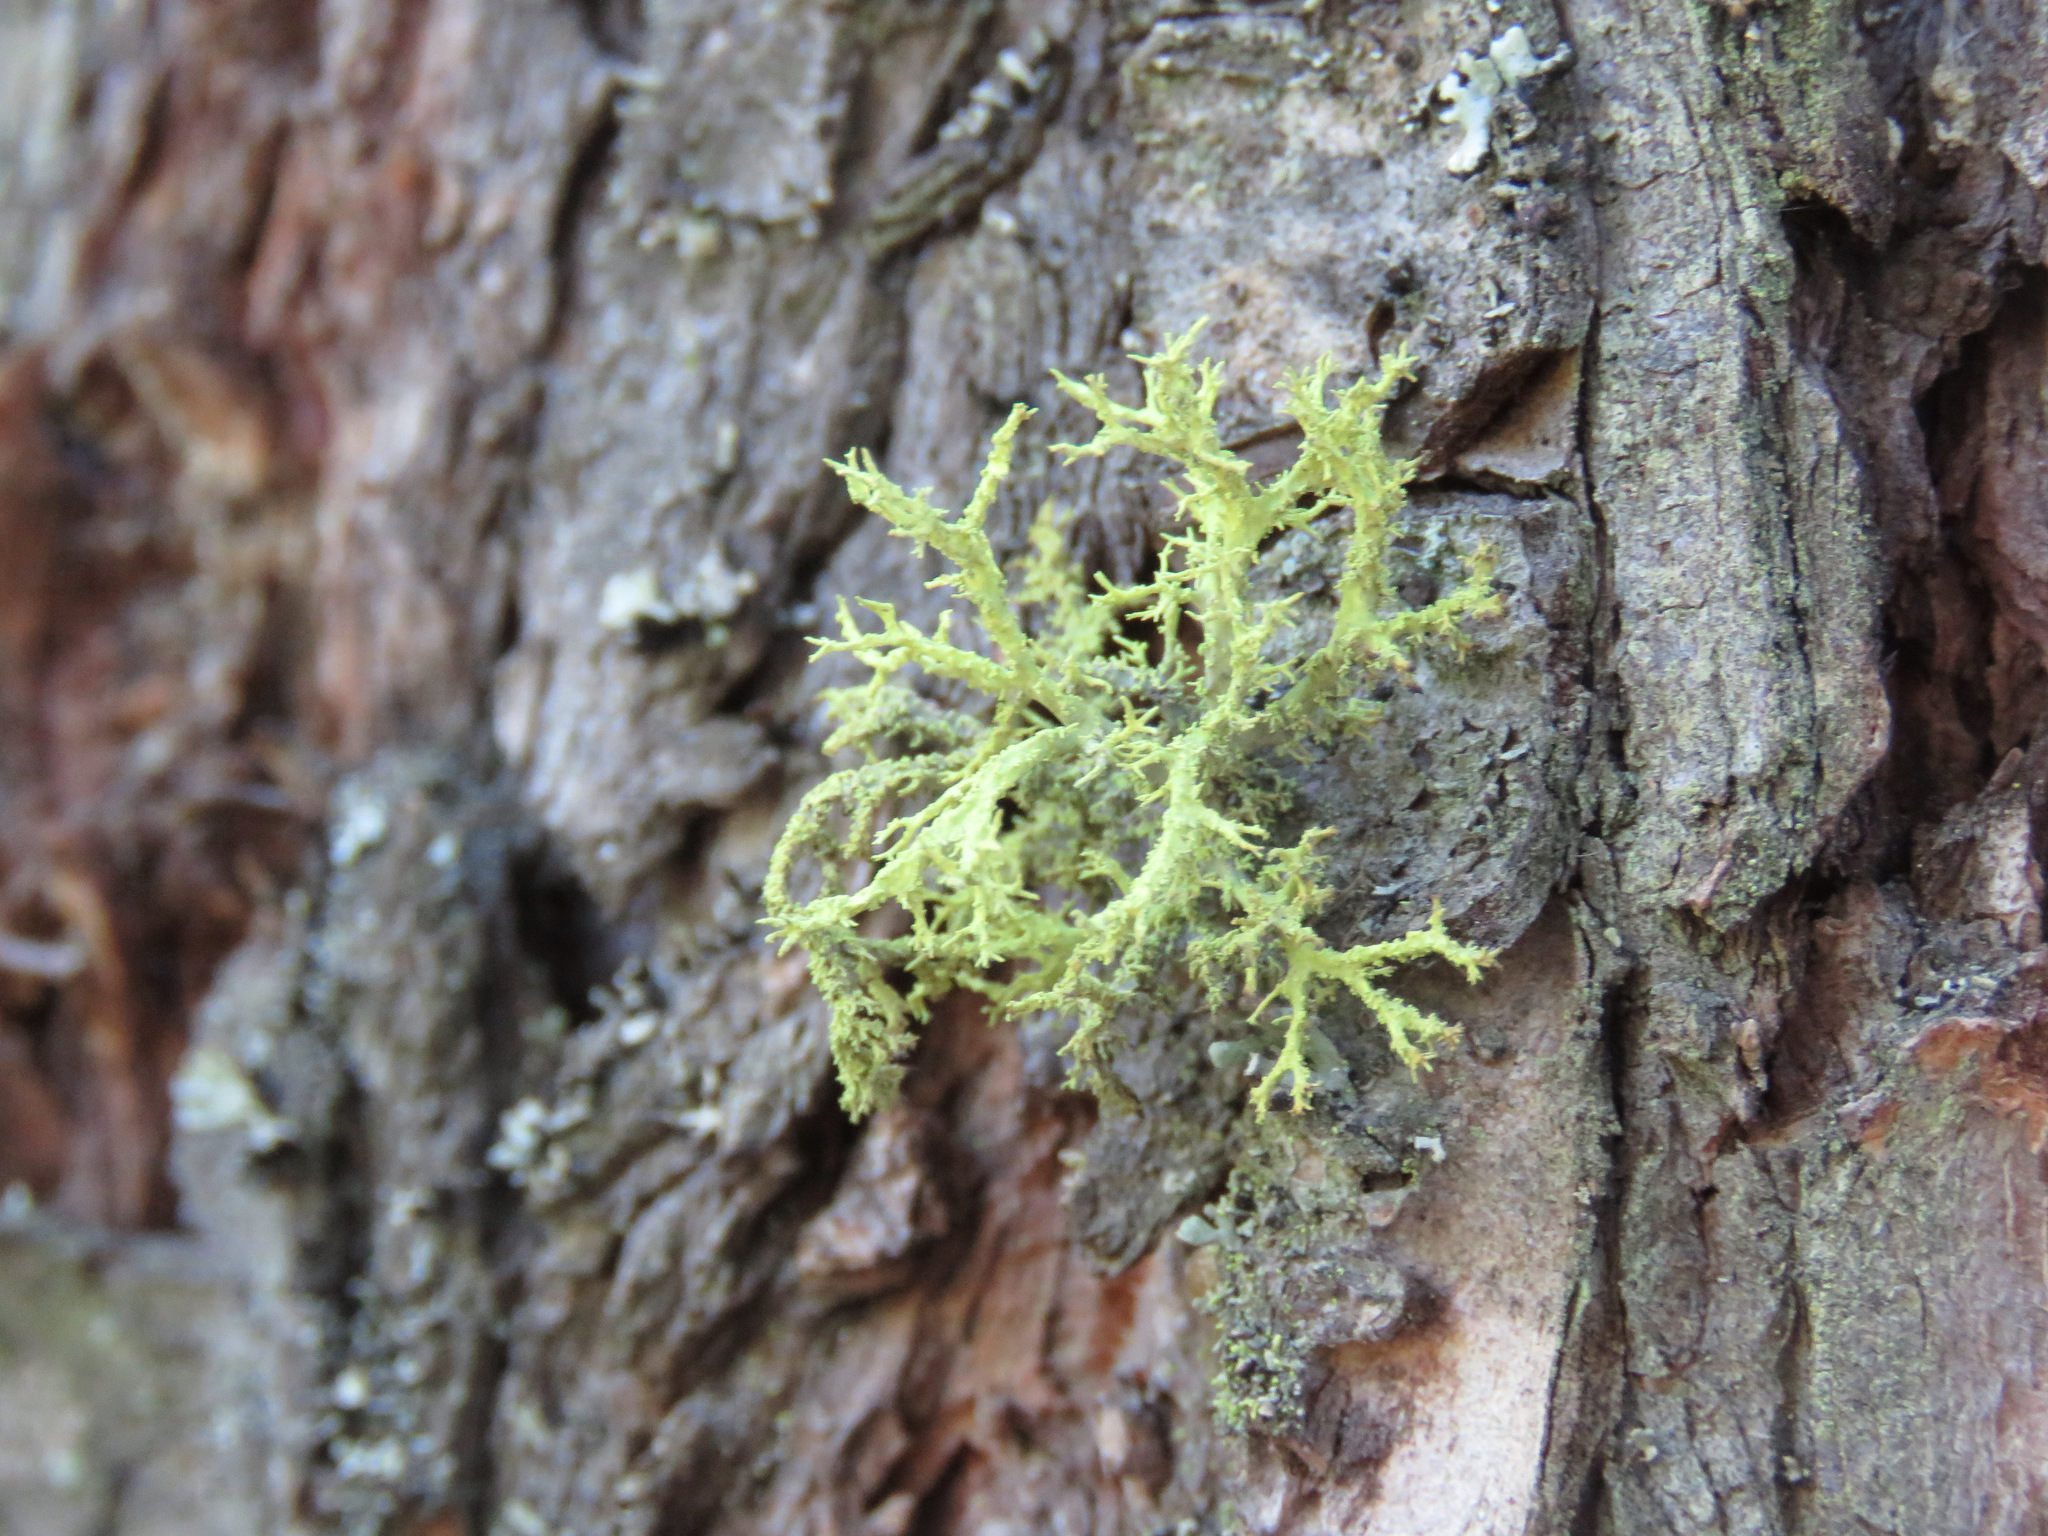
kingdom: Fungi
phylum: Ascomycota
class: Lecanoromycetes
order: Lecanorales
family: Parmeliaceae
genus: Letharia
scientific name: Letharia vulpina
